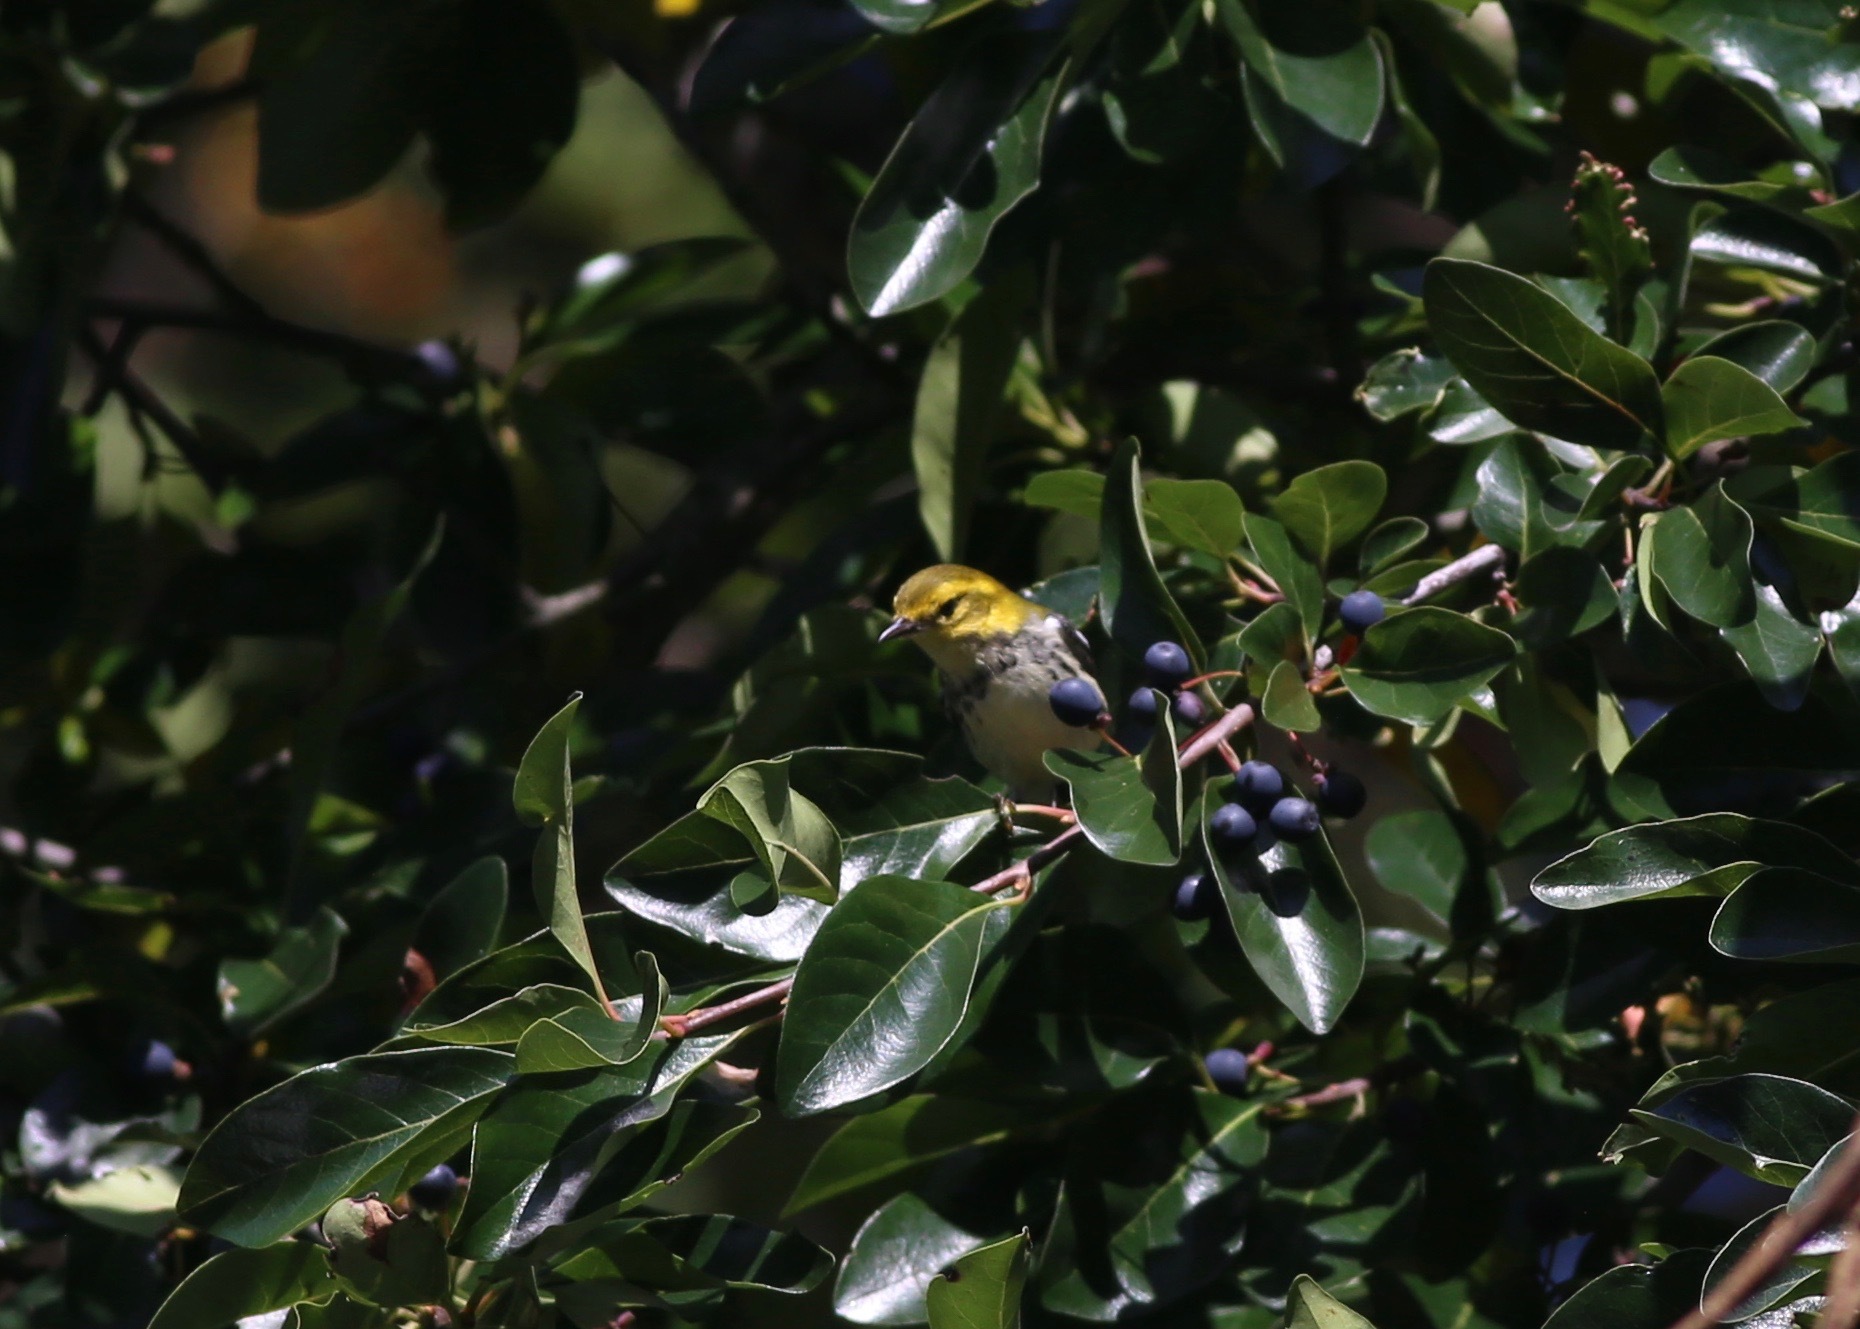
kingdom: Animalia
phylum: Chordata
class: Aves
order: Passeriformes
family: Parulidae
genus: Setophaga
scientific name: Setophaga virens
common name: Black-throated green warbler
